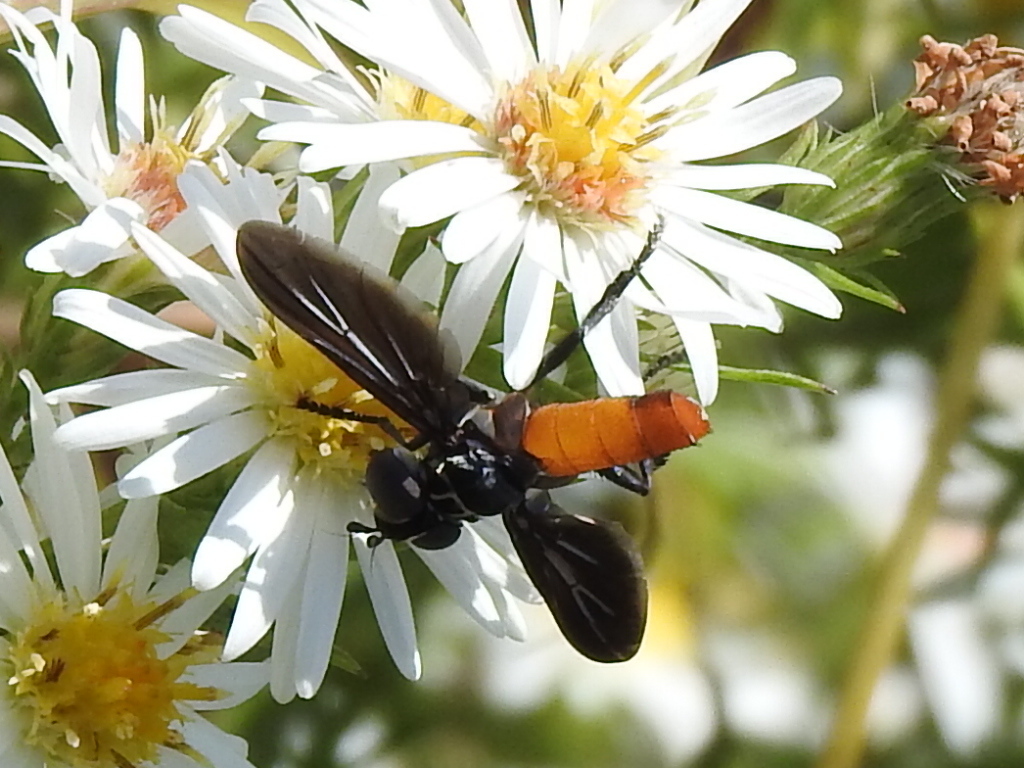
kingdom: Animalia
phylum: Arthropoda
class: Insecta
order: Diptera
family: Tachinidae
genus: Trichopoda
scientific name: Trichopoda lanipes
